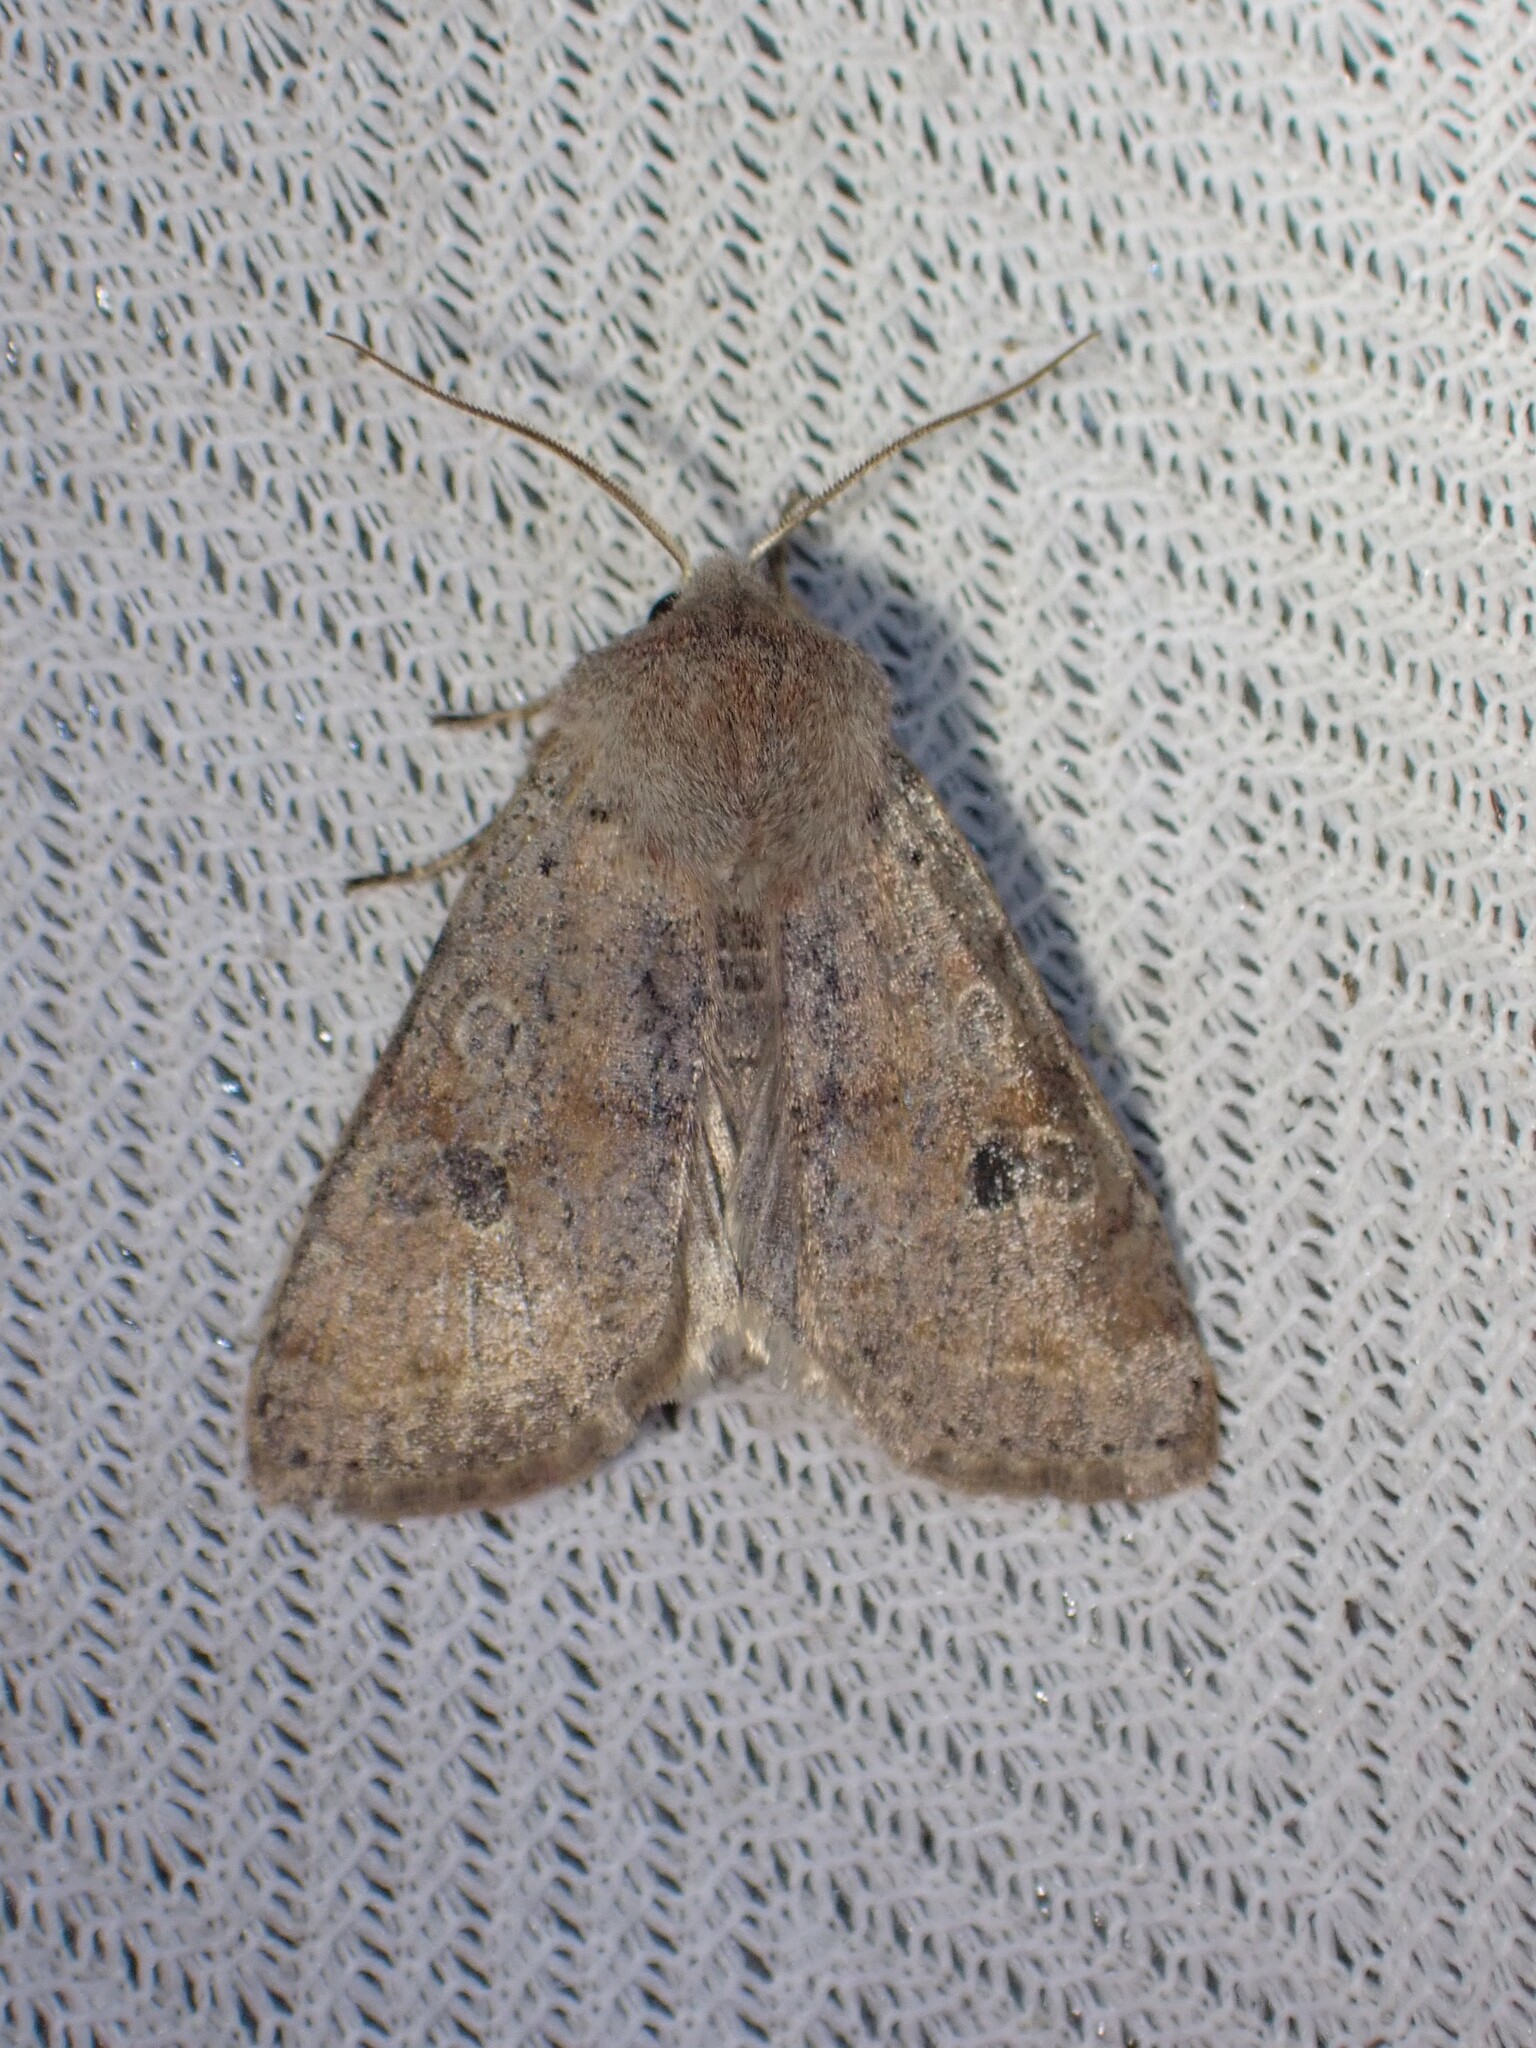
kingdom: Animalia
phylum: Arthropoda
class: Insecta
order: Lepidoptera
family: Noctuidae
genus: Orthosia
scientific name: Orthosia hibisci
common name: Green fruitworm
